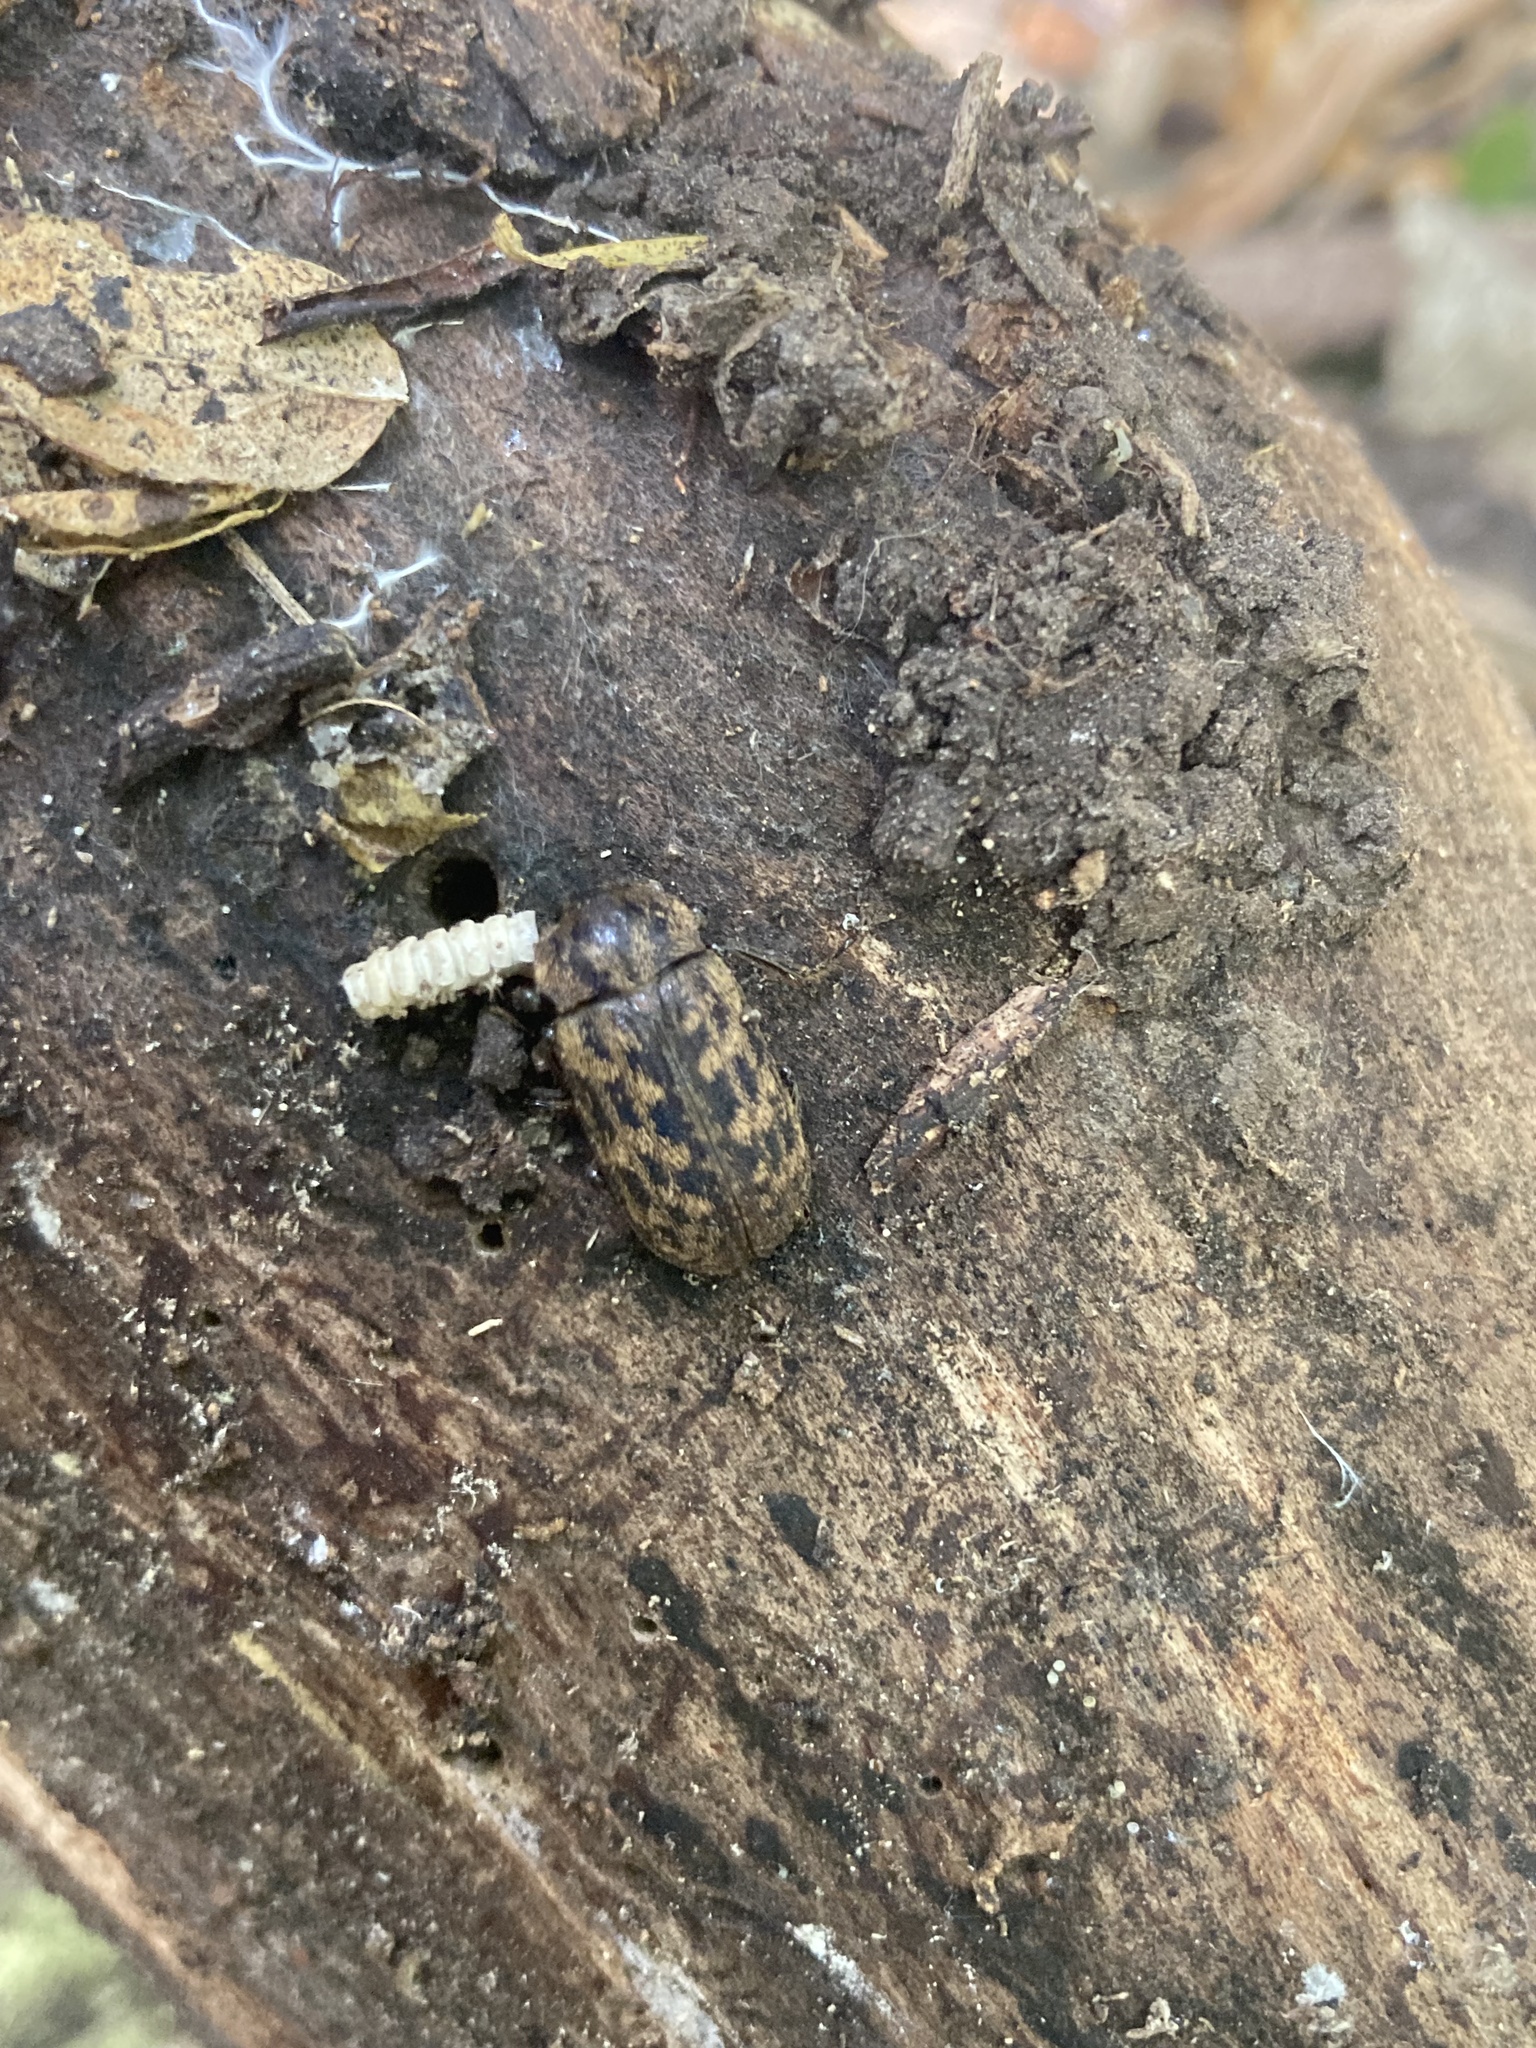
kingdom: Animalia
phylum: Arthropoda
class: Insecta
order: Coleoptera
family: Lucanidae
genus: Mitophyllus
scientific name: Mitophyllus parrianus
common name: Parry's stag beetle
